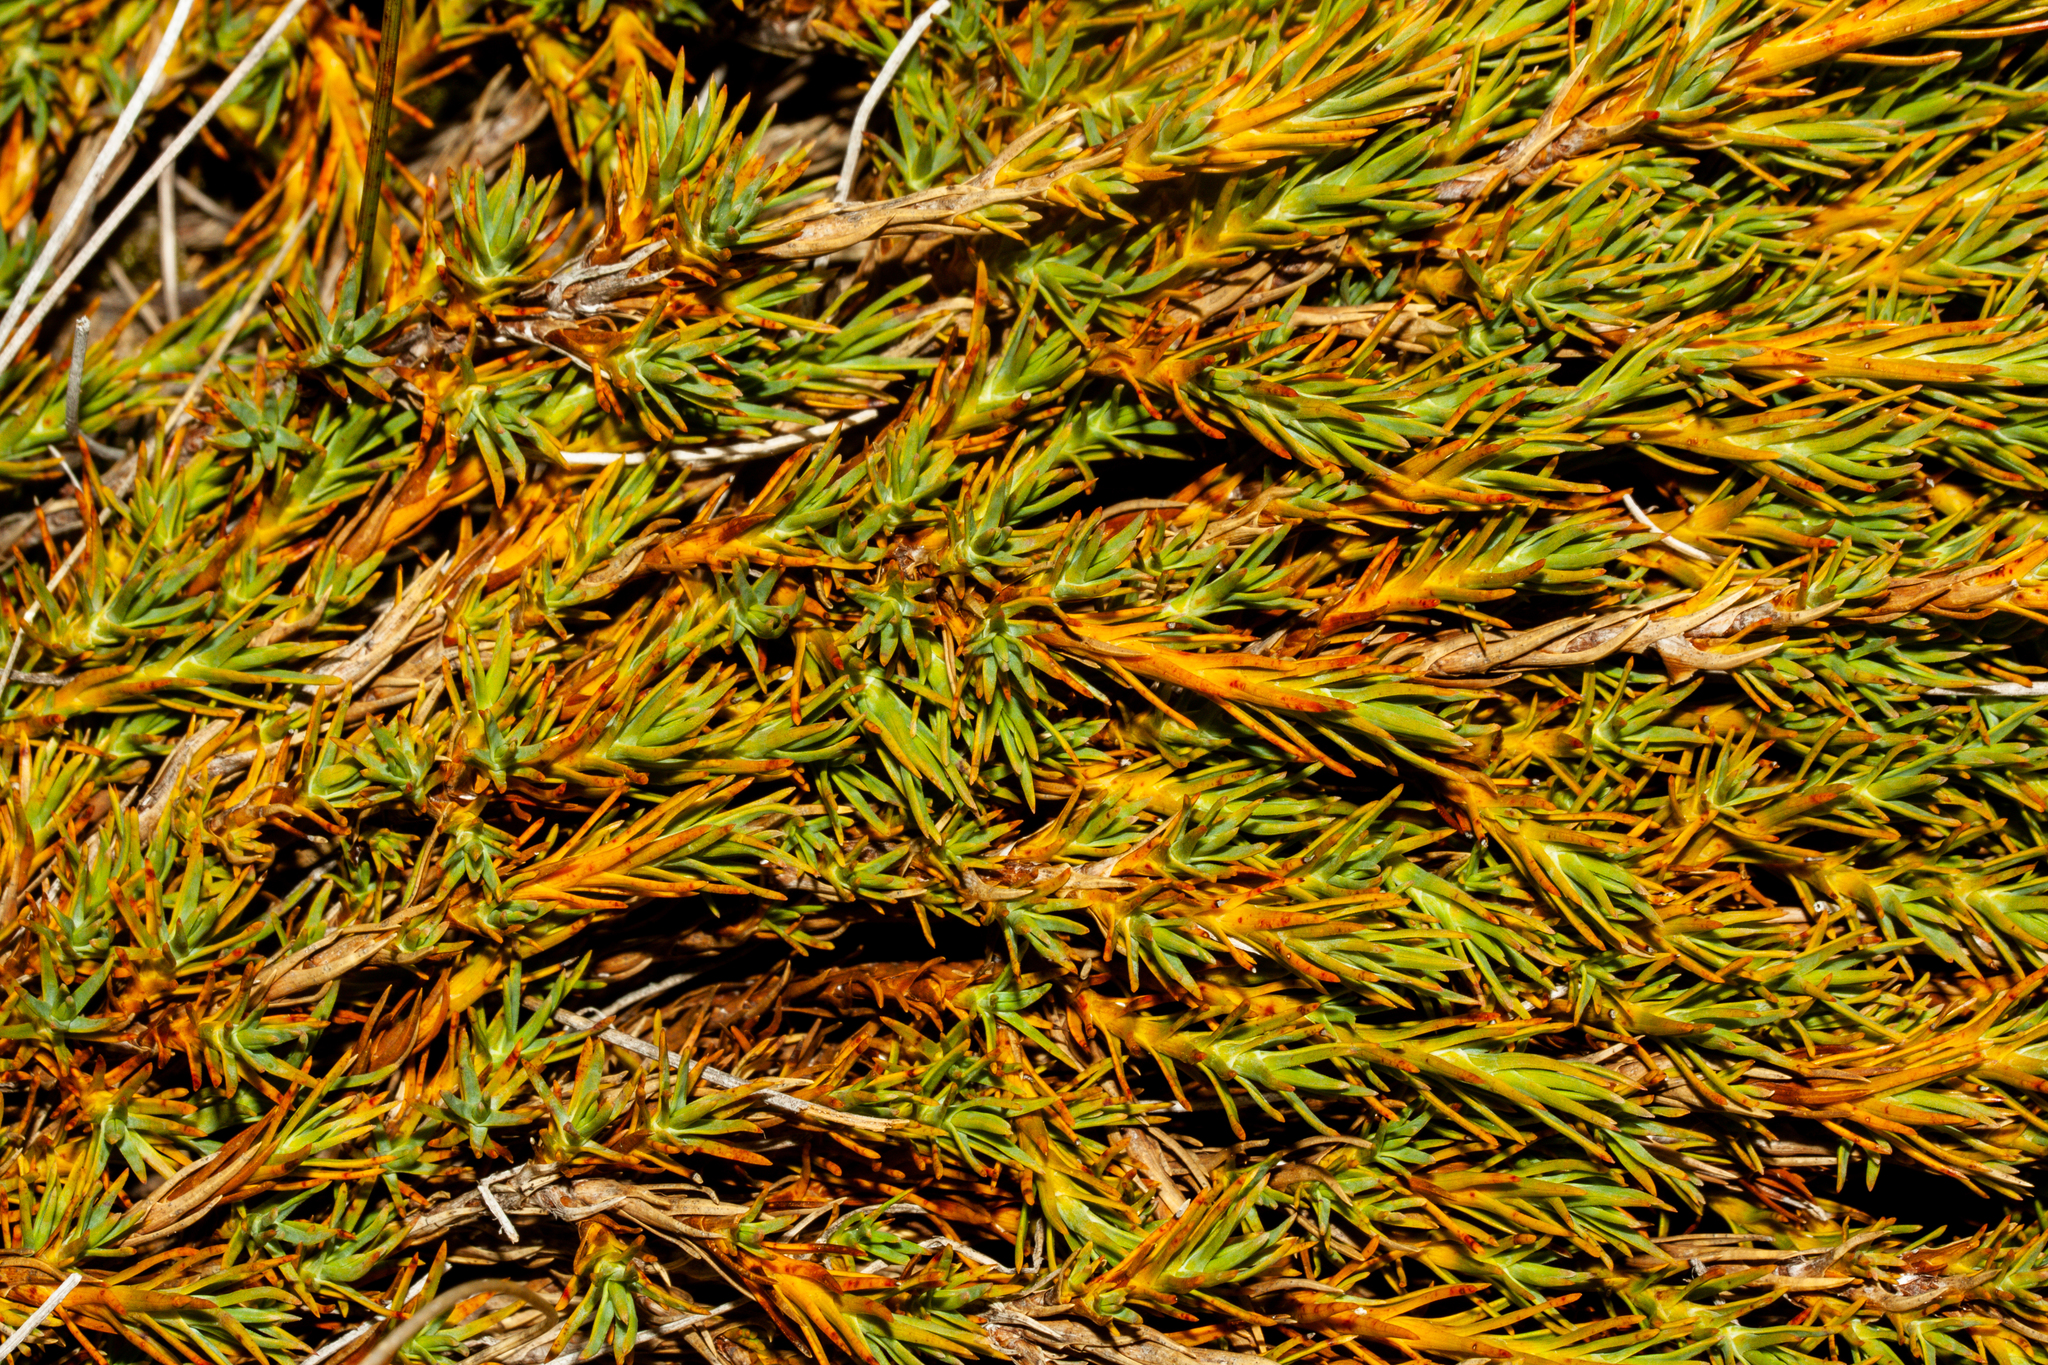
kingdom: Plantae
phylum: Tracheophyta
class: Magnoliopsida
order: Ericales
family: Ericaceae
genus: Dracophyllum
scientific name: Dracophyllum prostratum
